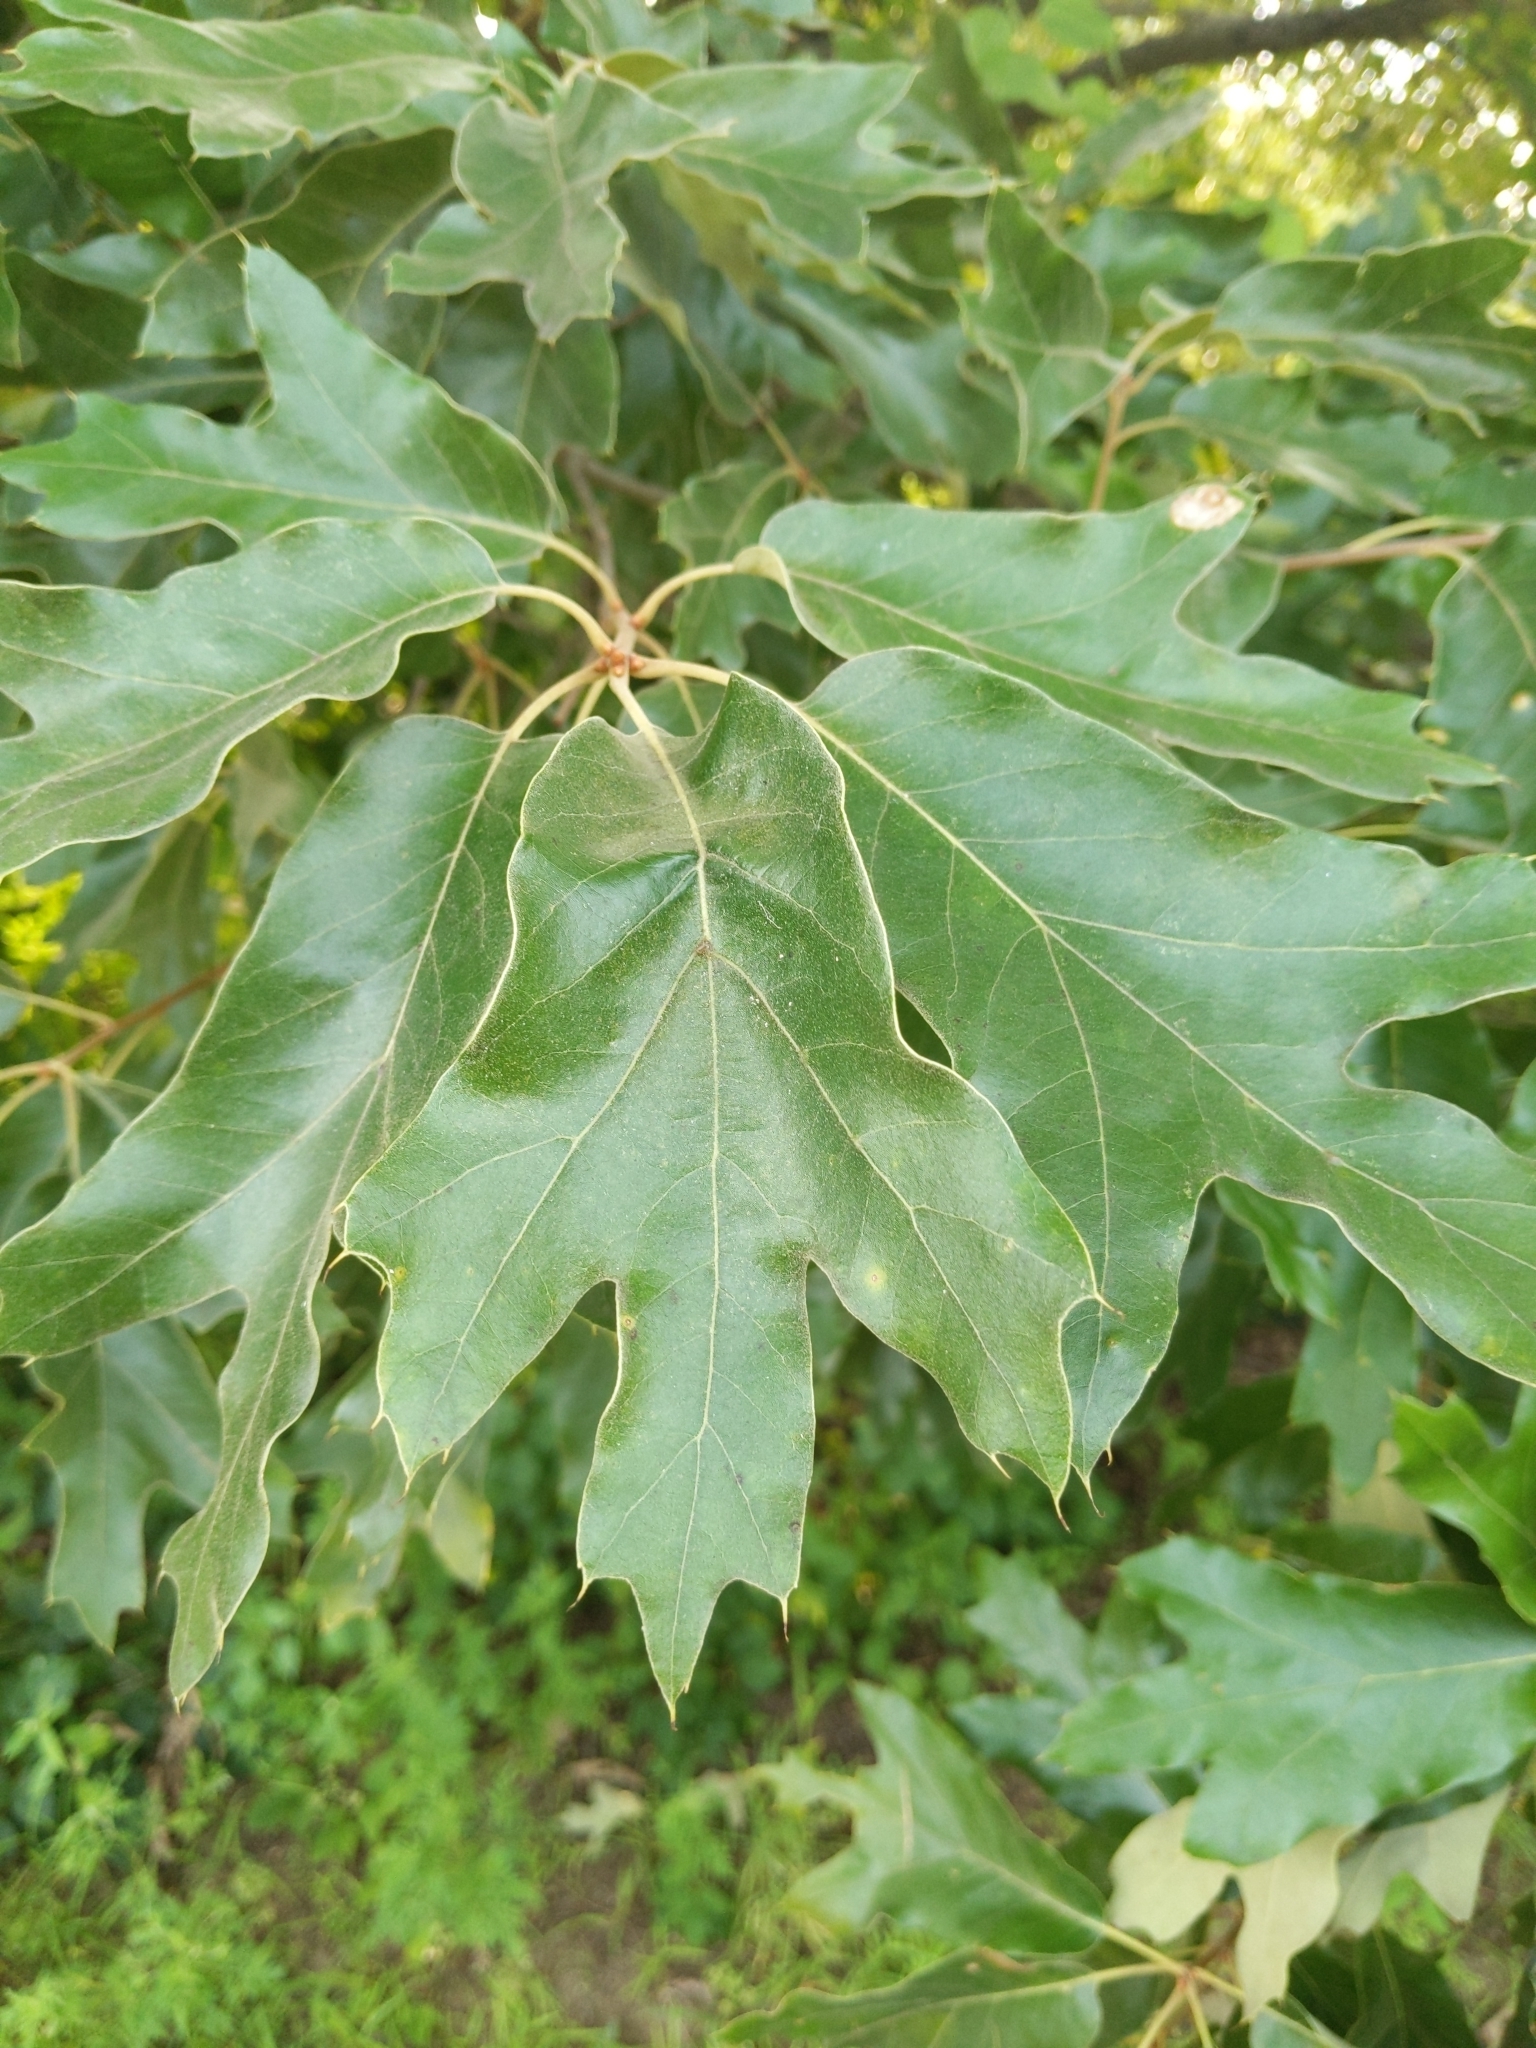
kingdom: Plantae
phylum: Tracheophyta
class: Magnoliopsida
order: Fagales
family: Fagaceae
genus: Quercus
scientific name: Quercus falcata
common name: Southern red oak
